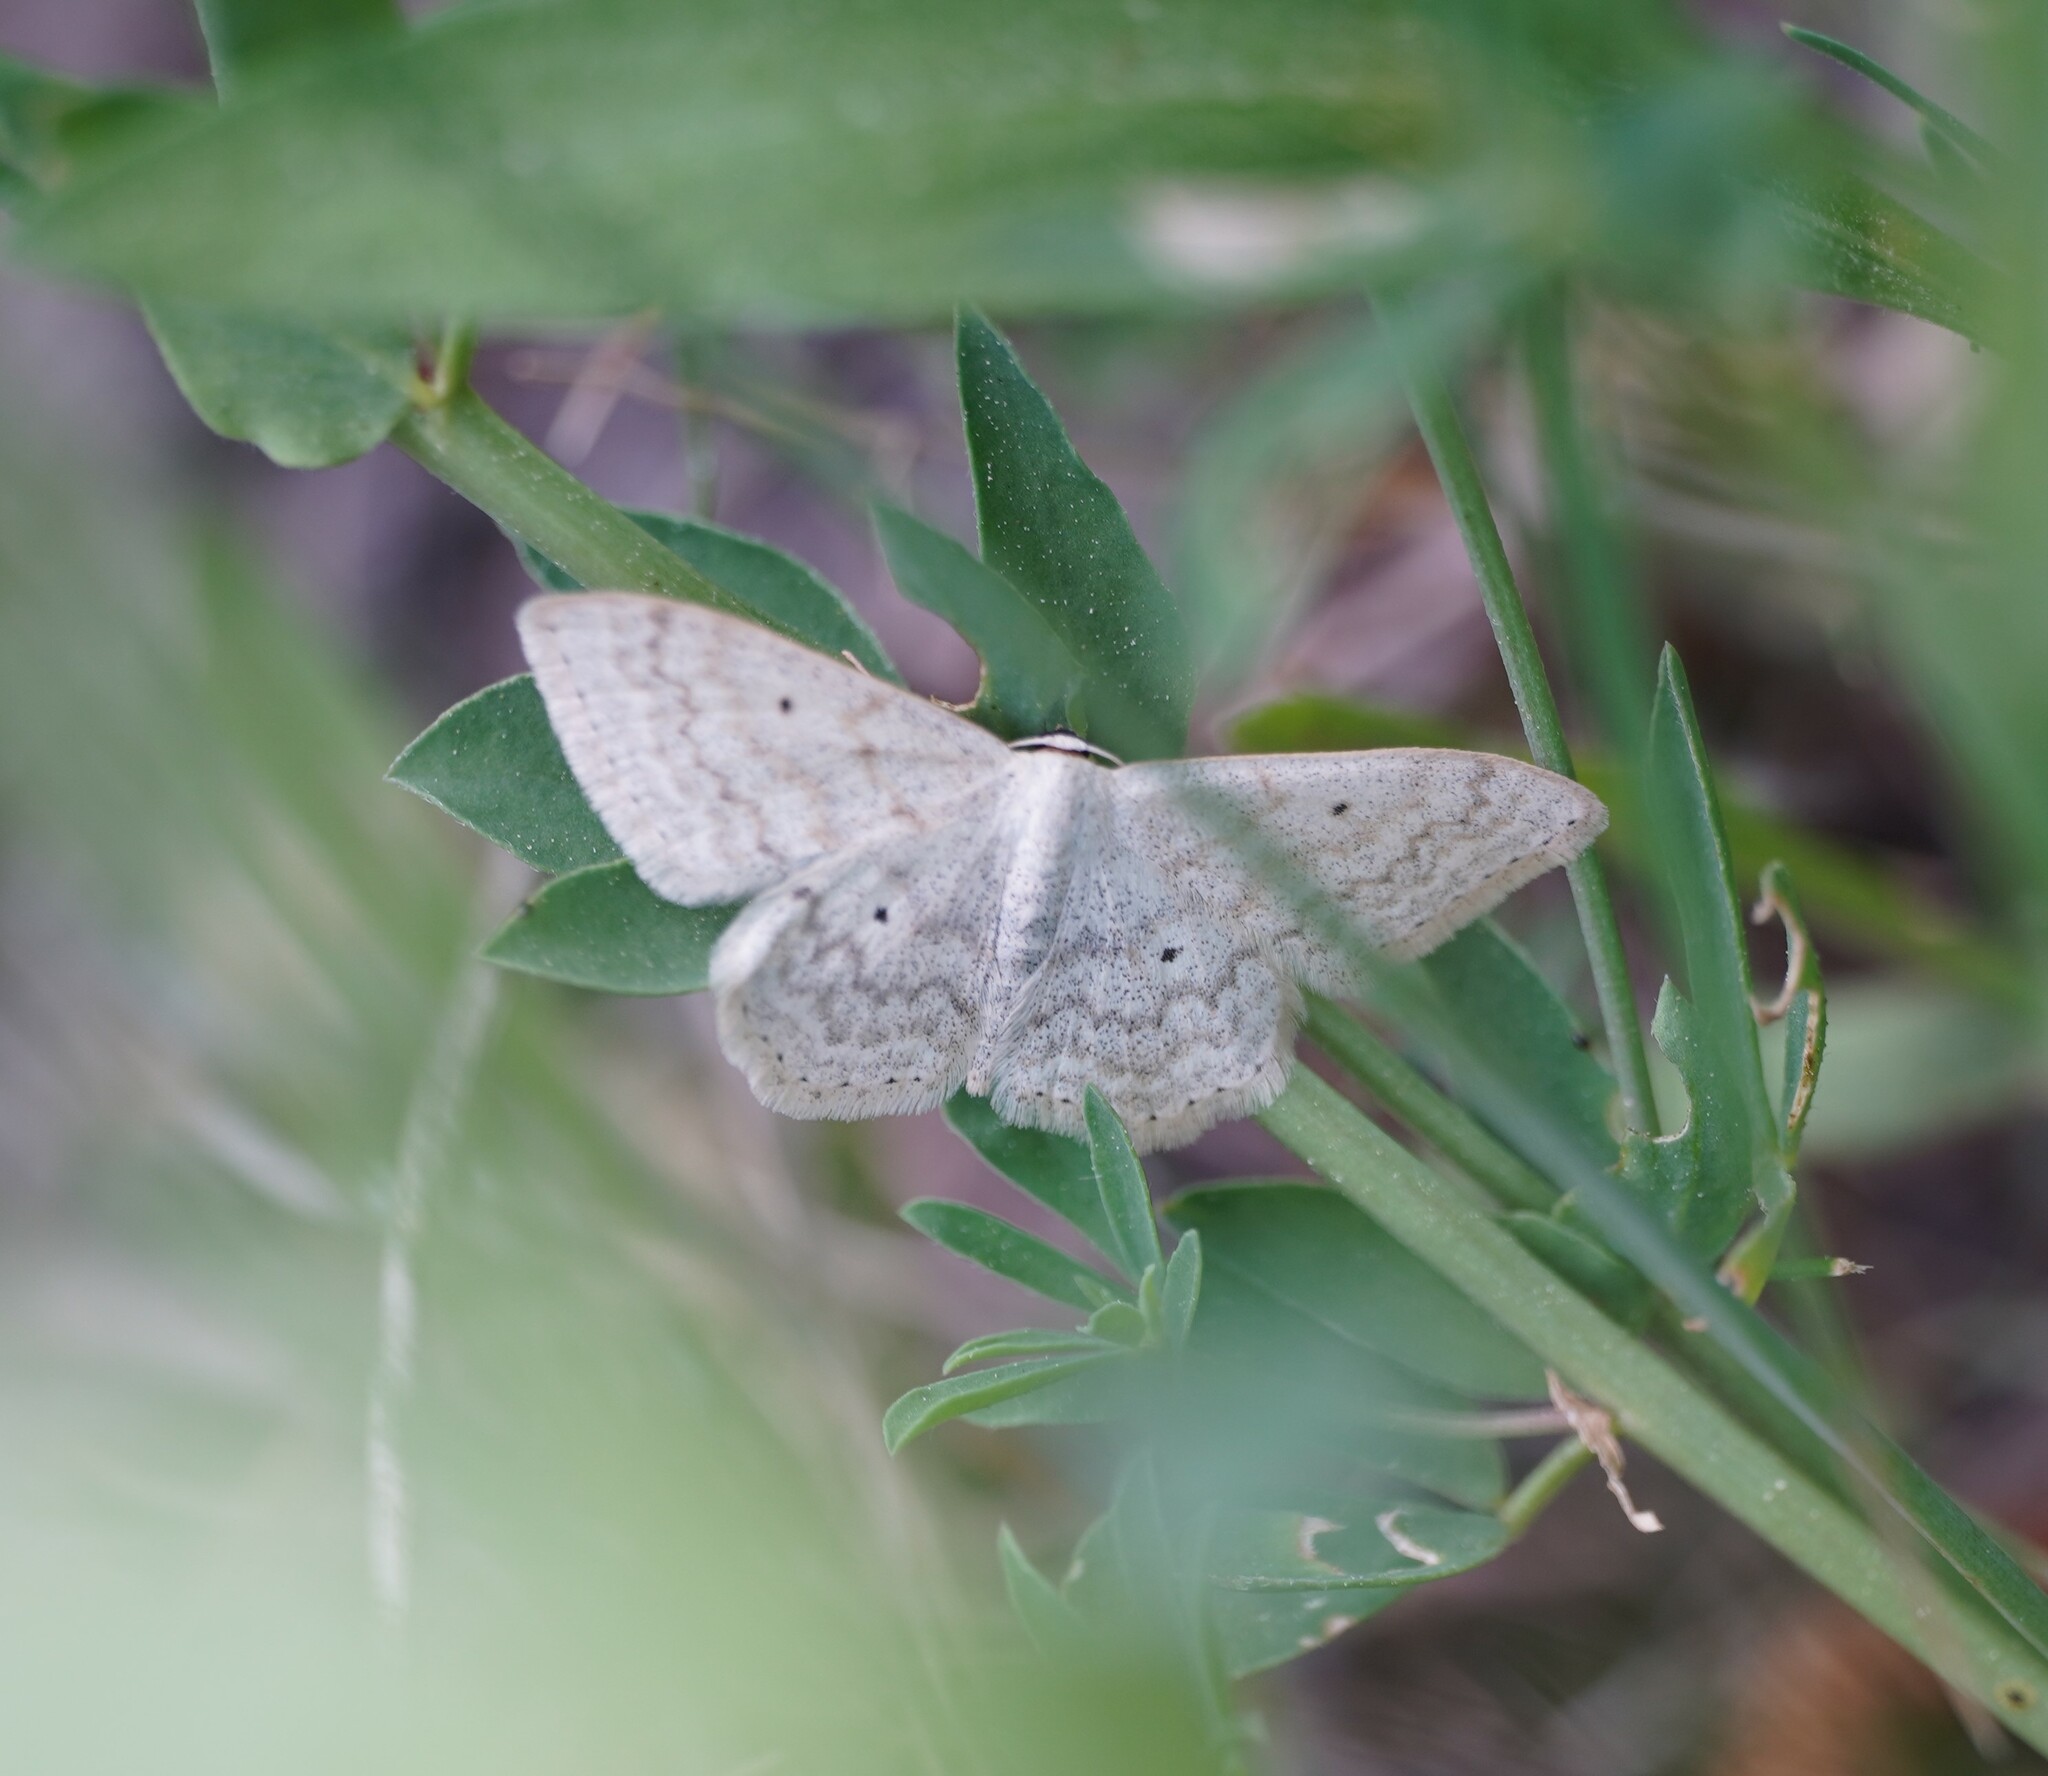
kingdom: Animalia
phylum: Arthropoda
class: Insecta
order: Lepidoptera
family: Geometridae
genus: Scopula
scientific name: Scopula incanata
